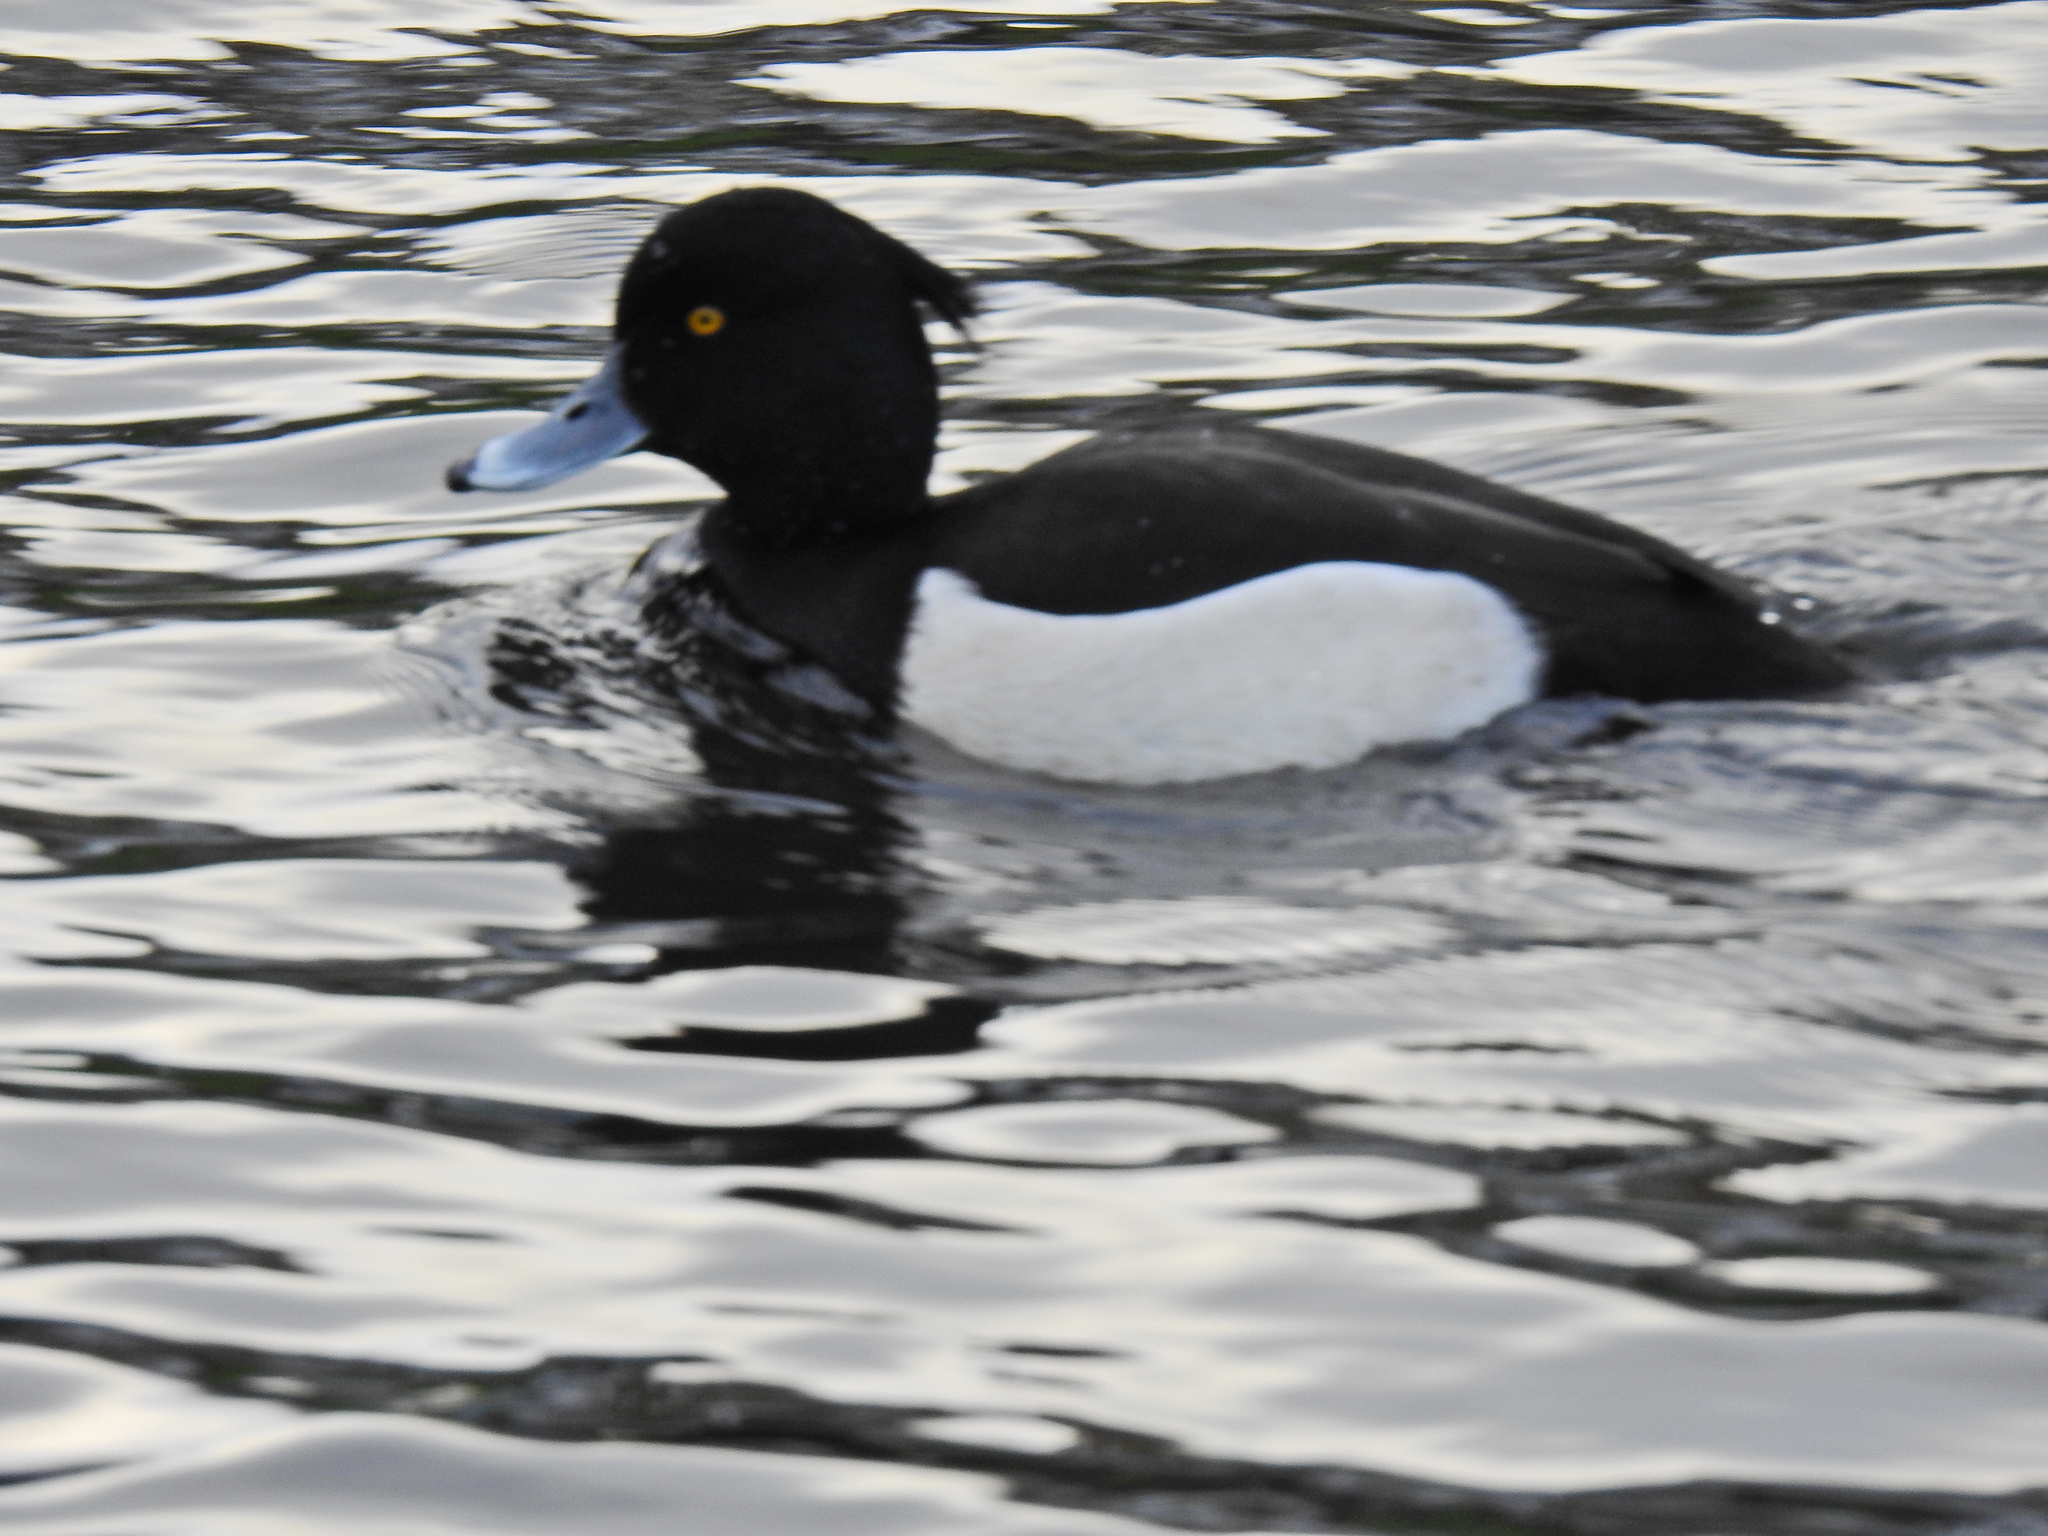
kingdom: Animalia
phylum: Chordata
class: Aves
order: Anseriformes
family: Anatidae
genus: Aythya
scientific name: Aythya fuligula
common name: Tufted duck
